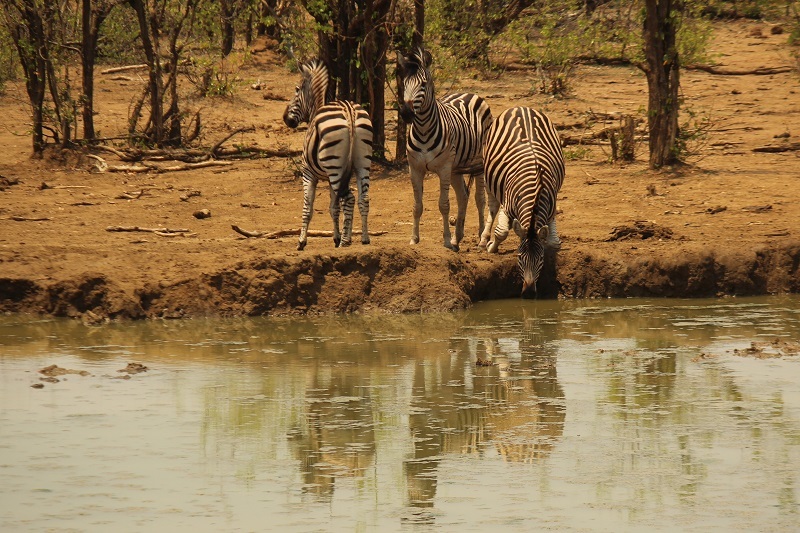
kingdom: Animalia
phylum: Chordata
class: Mammalia
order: Perissodactyla
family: Equidae
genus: Equus
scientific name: Equus quagga
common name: Plains zebra
